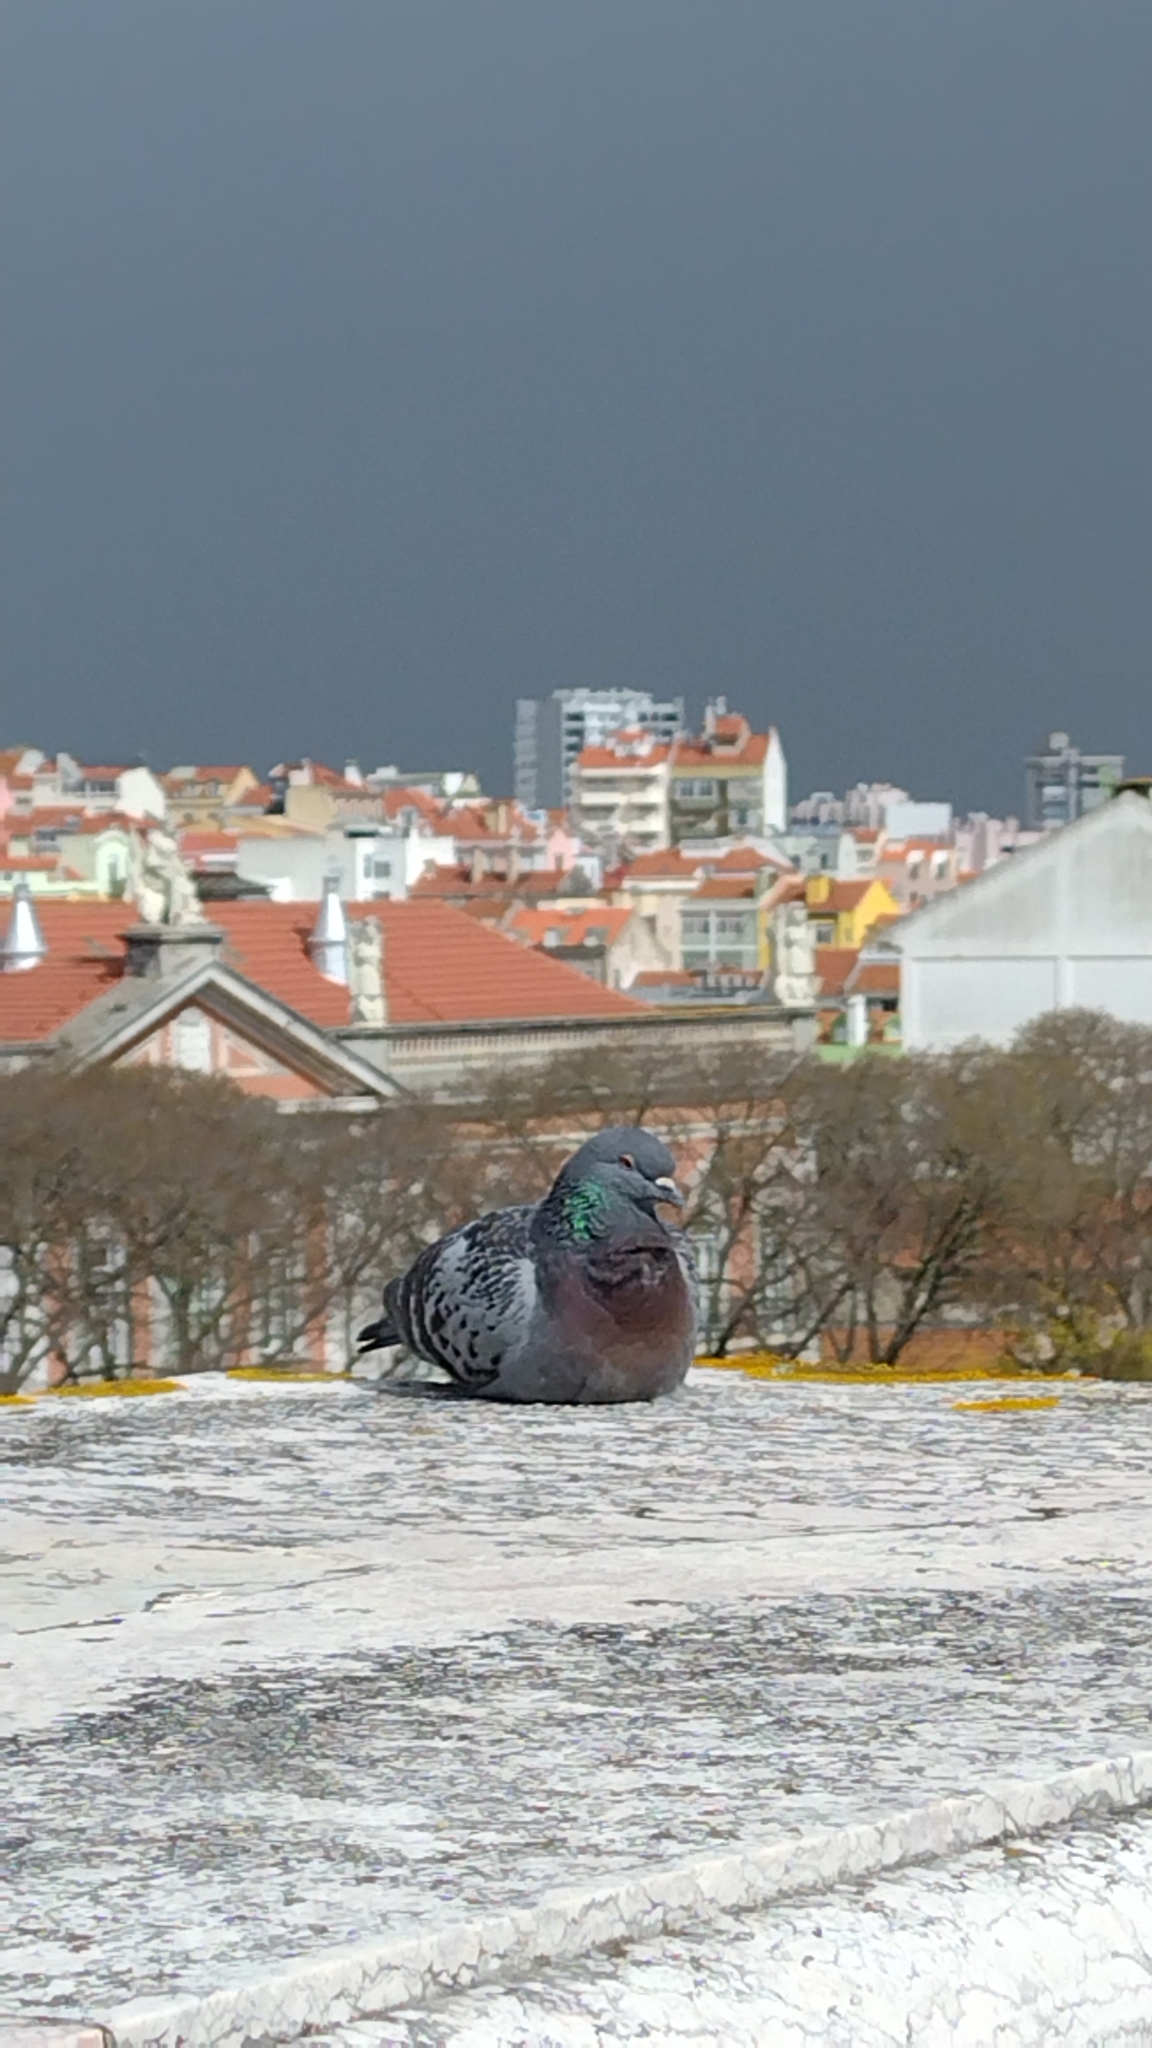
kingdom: Animalia
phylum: Chordata
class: Aves
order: Columbiformes
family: Columbidae
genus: Columba
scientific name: Columba livia
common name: Rock pigeon
